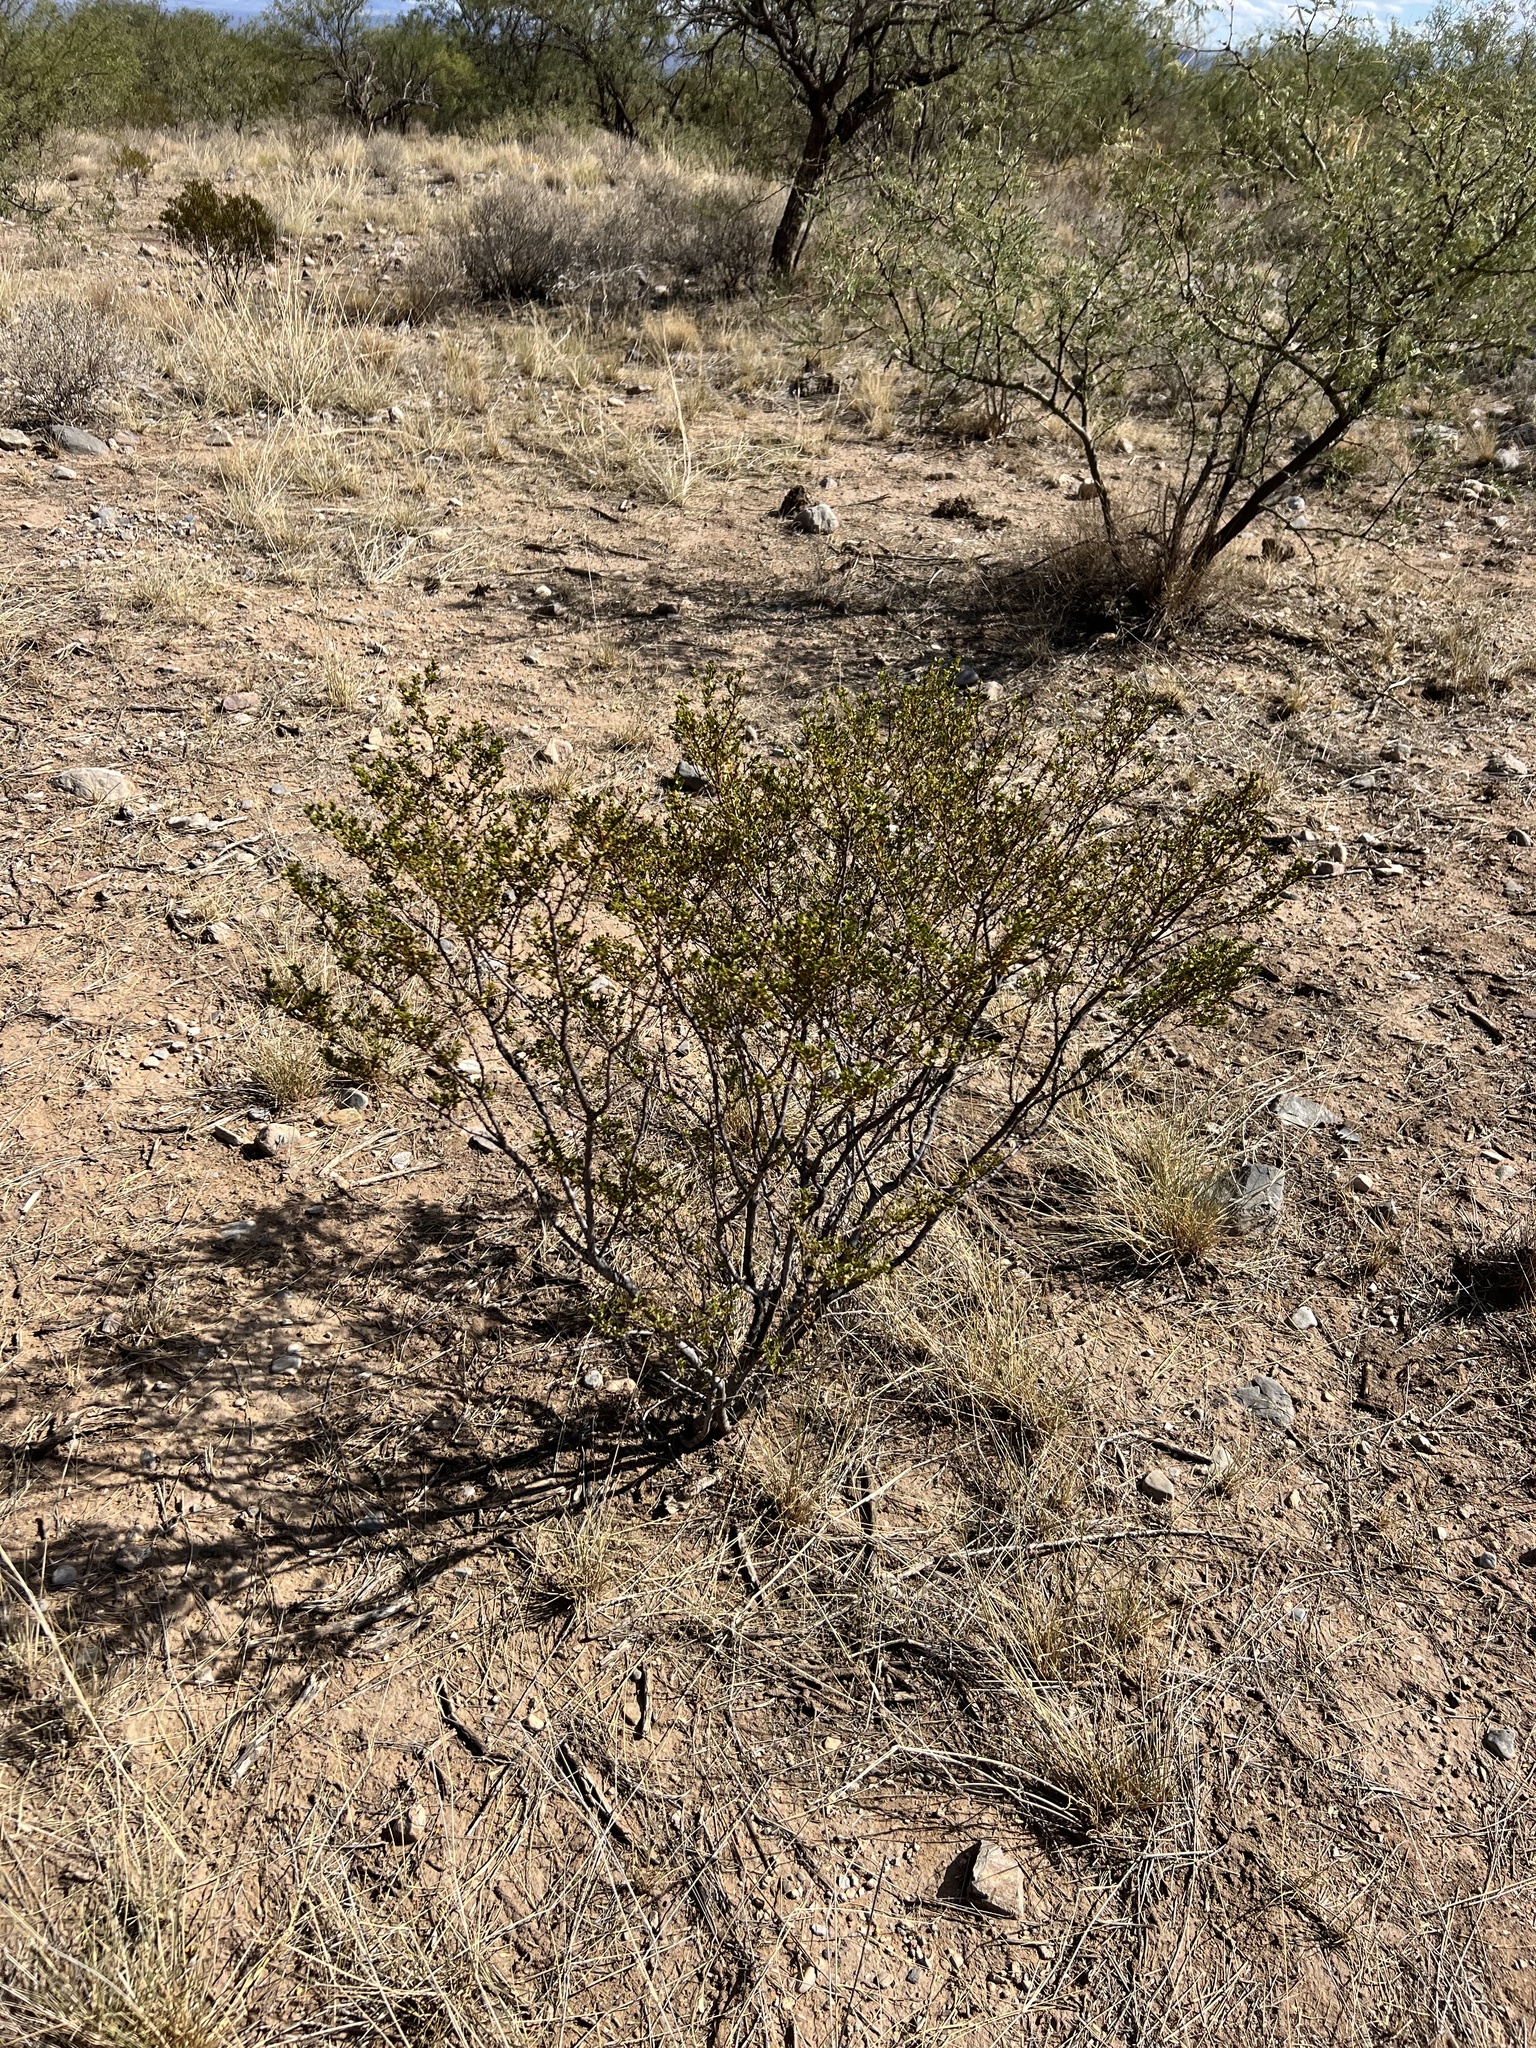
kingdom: Plantae
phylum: Tracheophyta
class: Magnoliopsida
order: Zygophyllales
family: Zygophyllaceae
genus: Larrea
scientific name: Larrea tridentata
